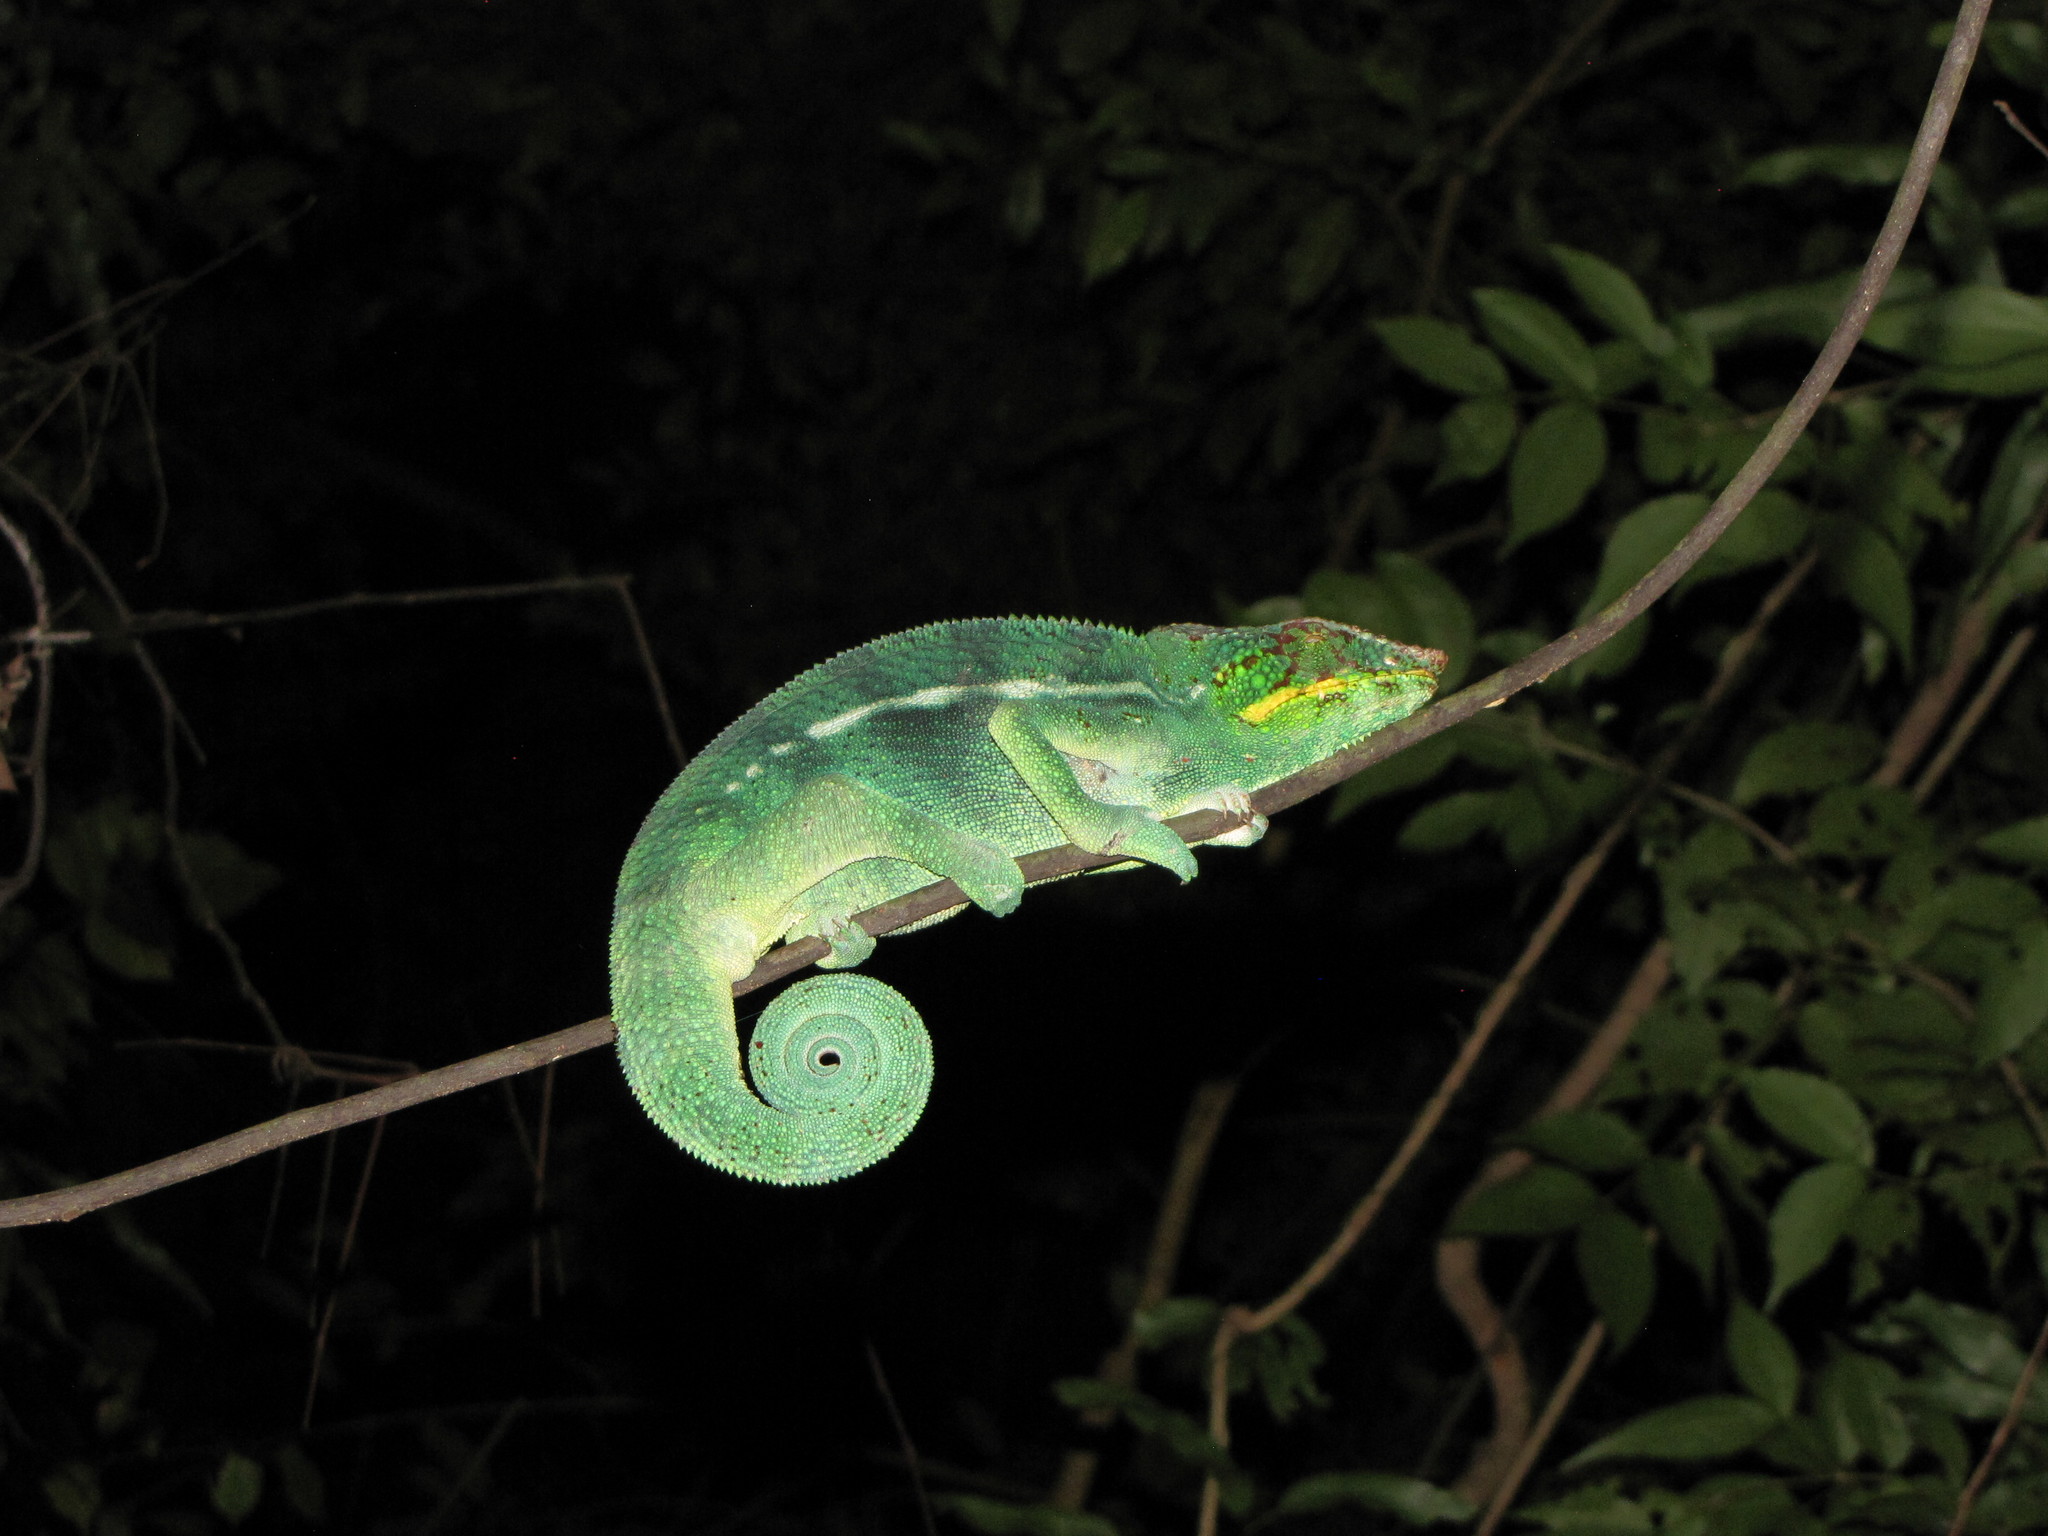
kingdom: Animalia
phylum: Chordata
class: Squamata
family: Chamaeleonidae
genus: Furcifer
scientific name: Furcifer pardalis
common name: Panther chameleon
